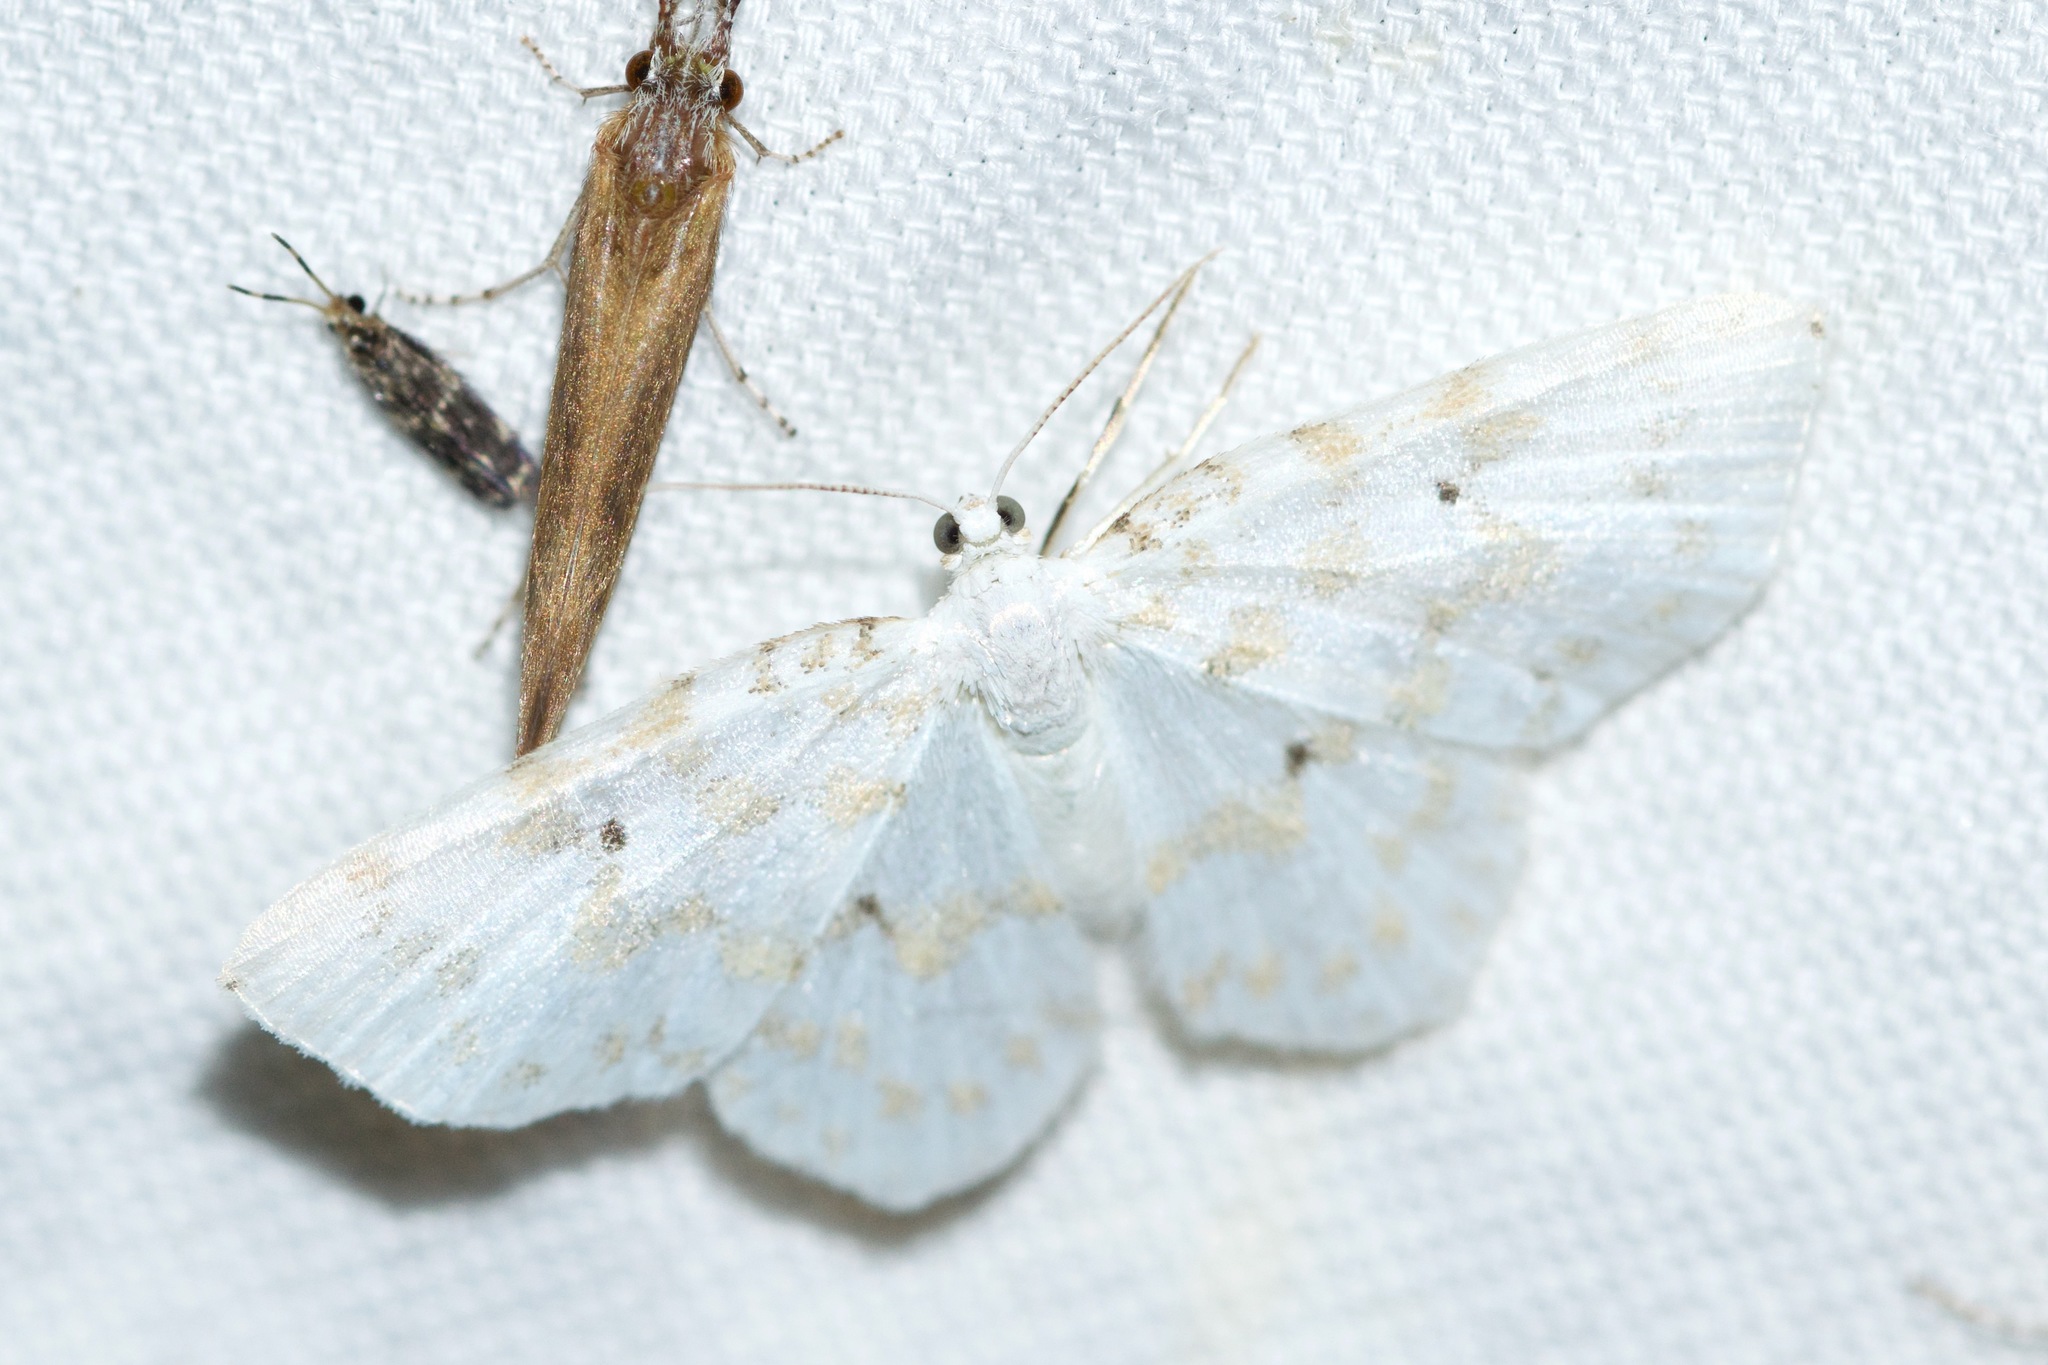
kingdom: Animalia
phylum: Arthropoda
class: Insecta
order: Lepidoptera
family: Geometridae
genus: Hydrelia
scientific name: Hydrelia albifera
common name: Fragile white carpet
